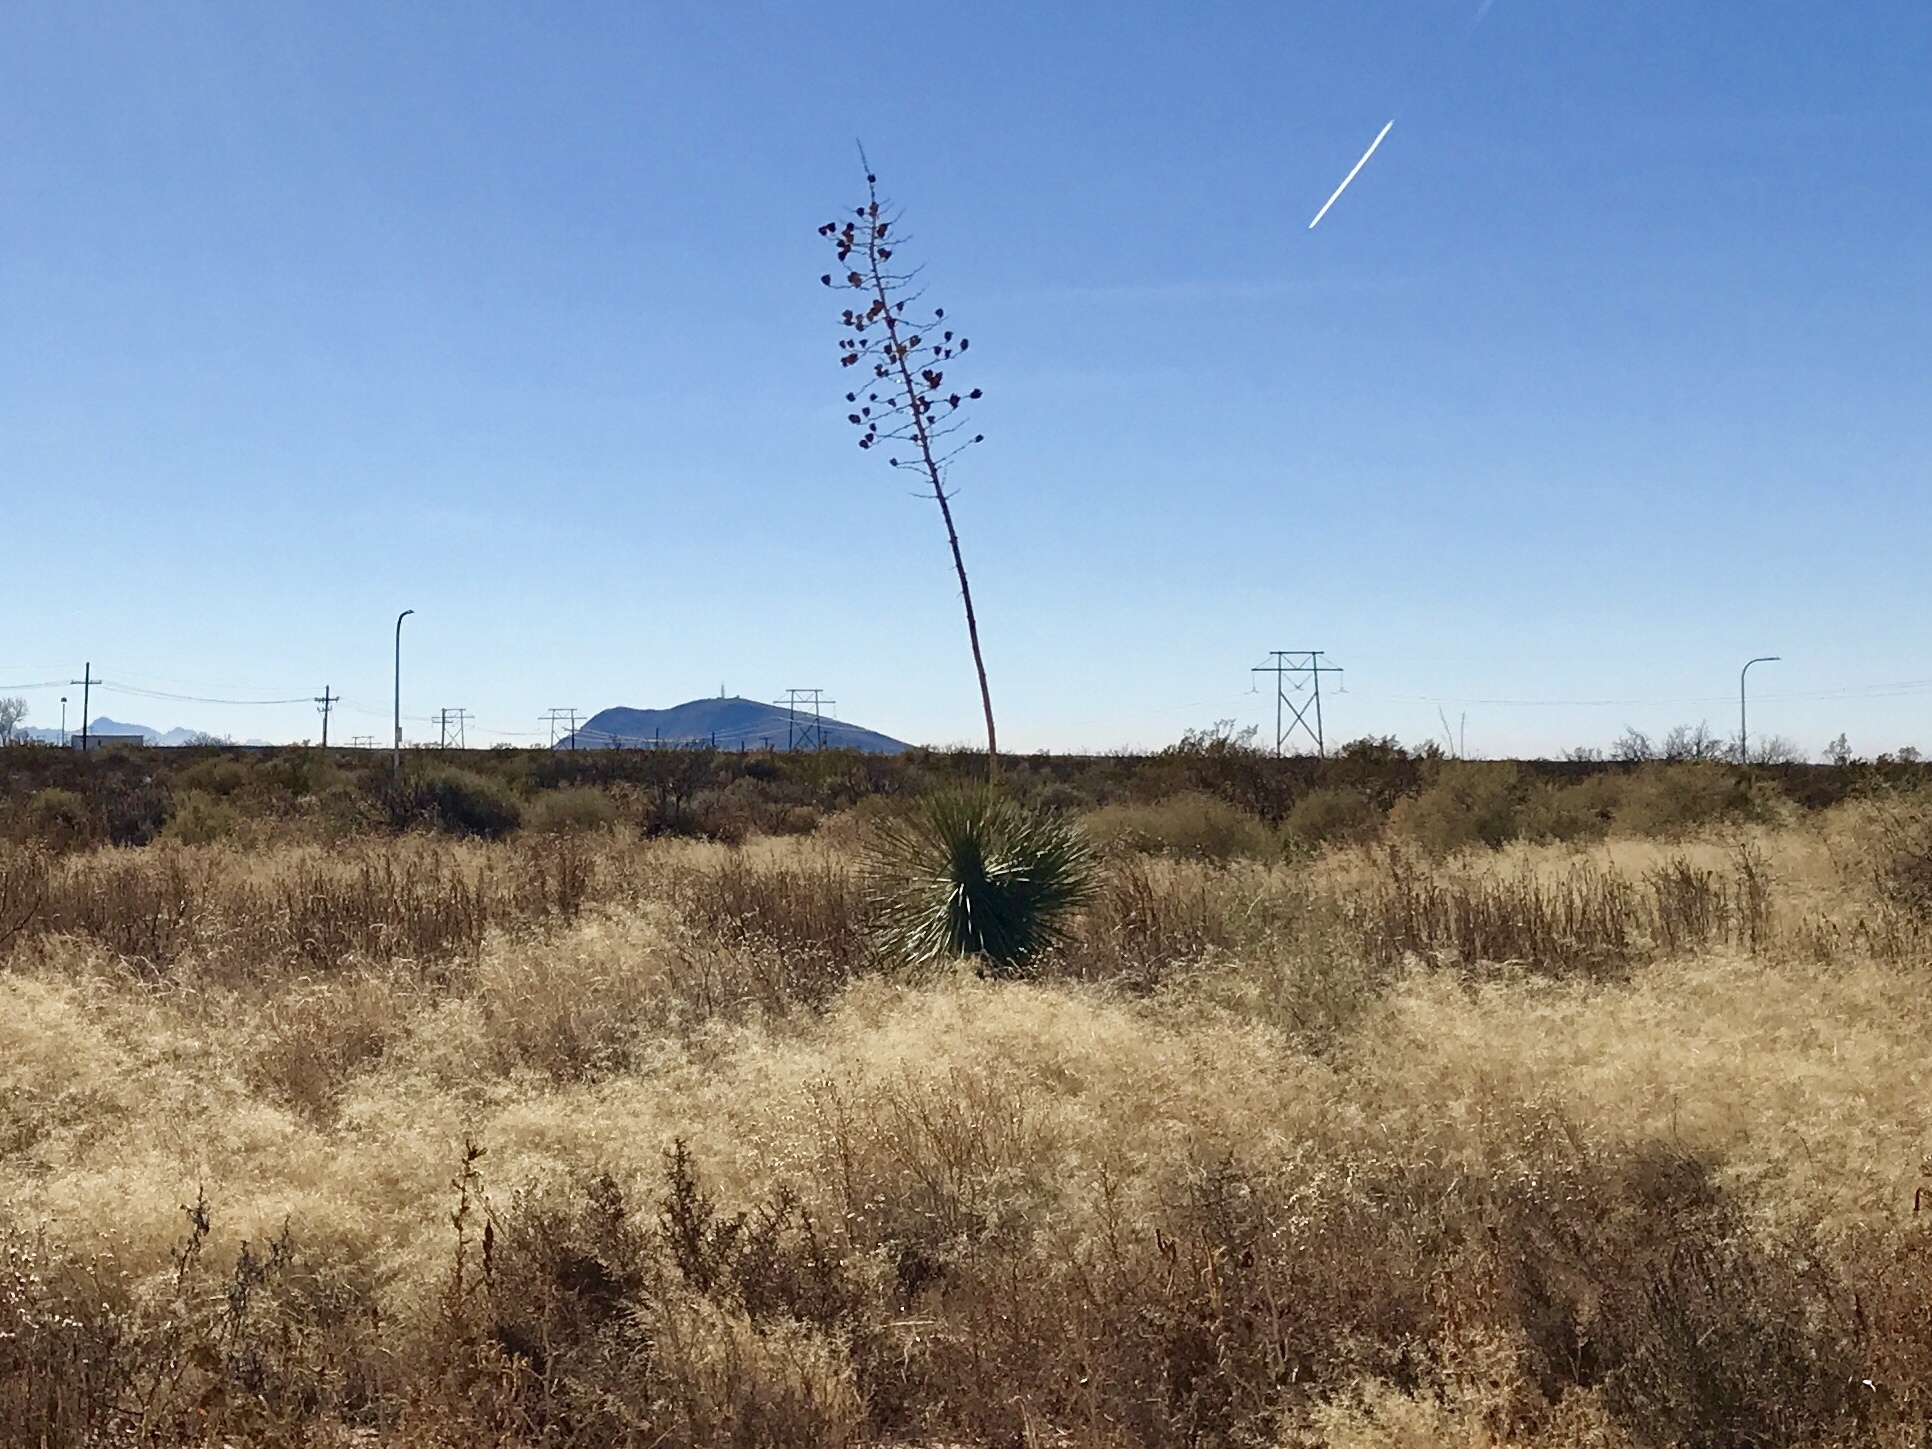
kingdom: Plantae
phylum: Tracheophyta
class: Liliopsida
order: Asparagales
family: Asparagaceae
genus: Yucca
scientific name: Yucca elata
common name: Palmella
